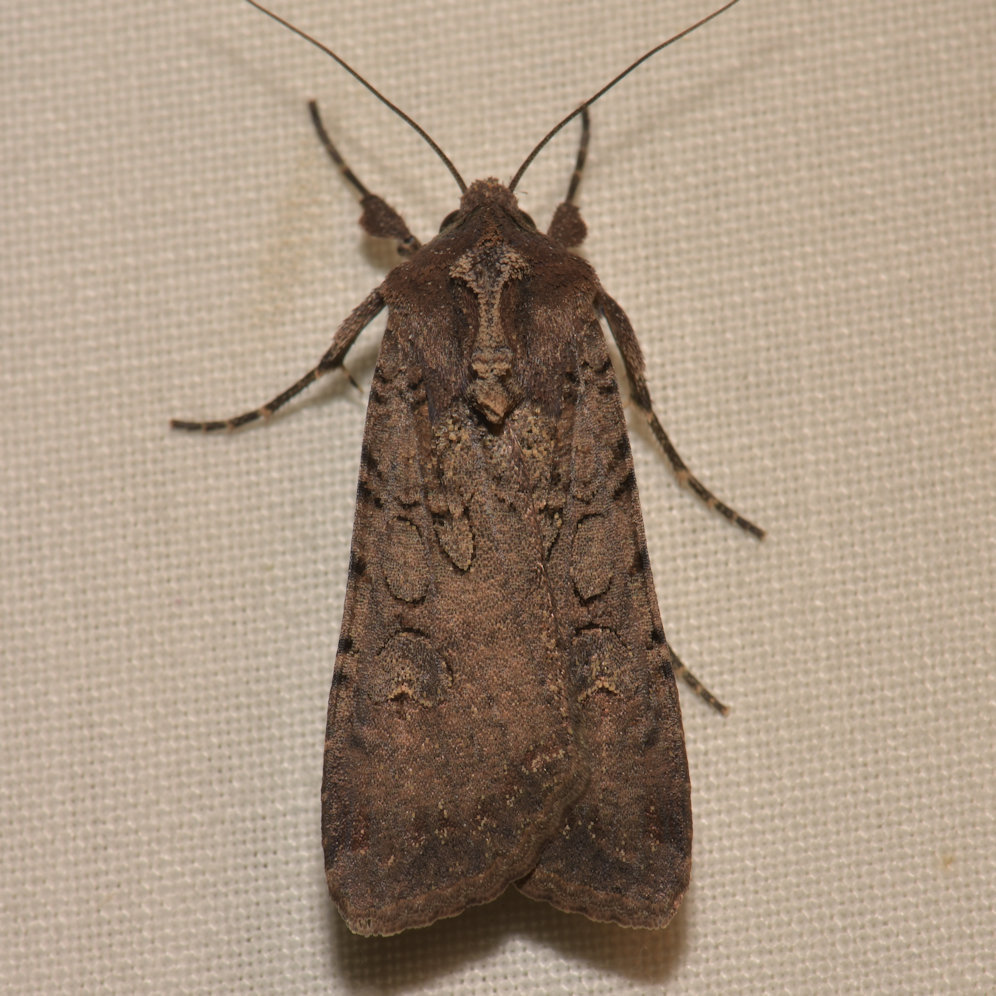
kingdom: Animalia
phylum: Arthropoda
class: Insecta
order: Lepidoptera
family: Noctuidae
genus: Peridroma
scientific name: Peridroma saucia
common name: Pearly underwing
